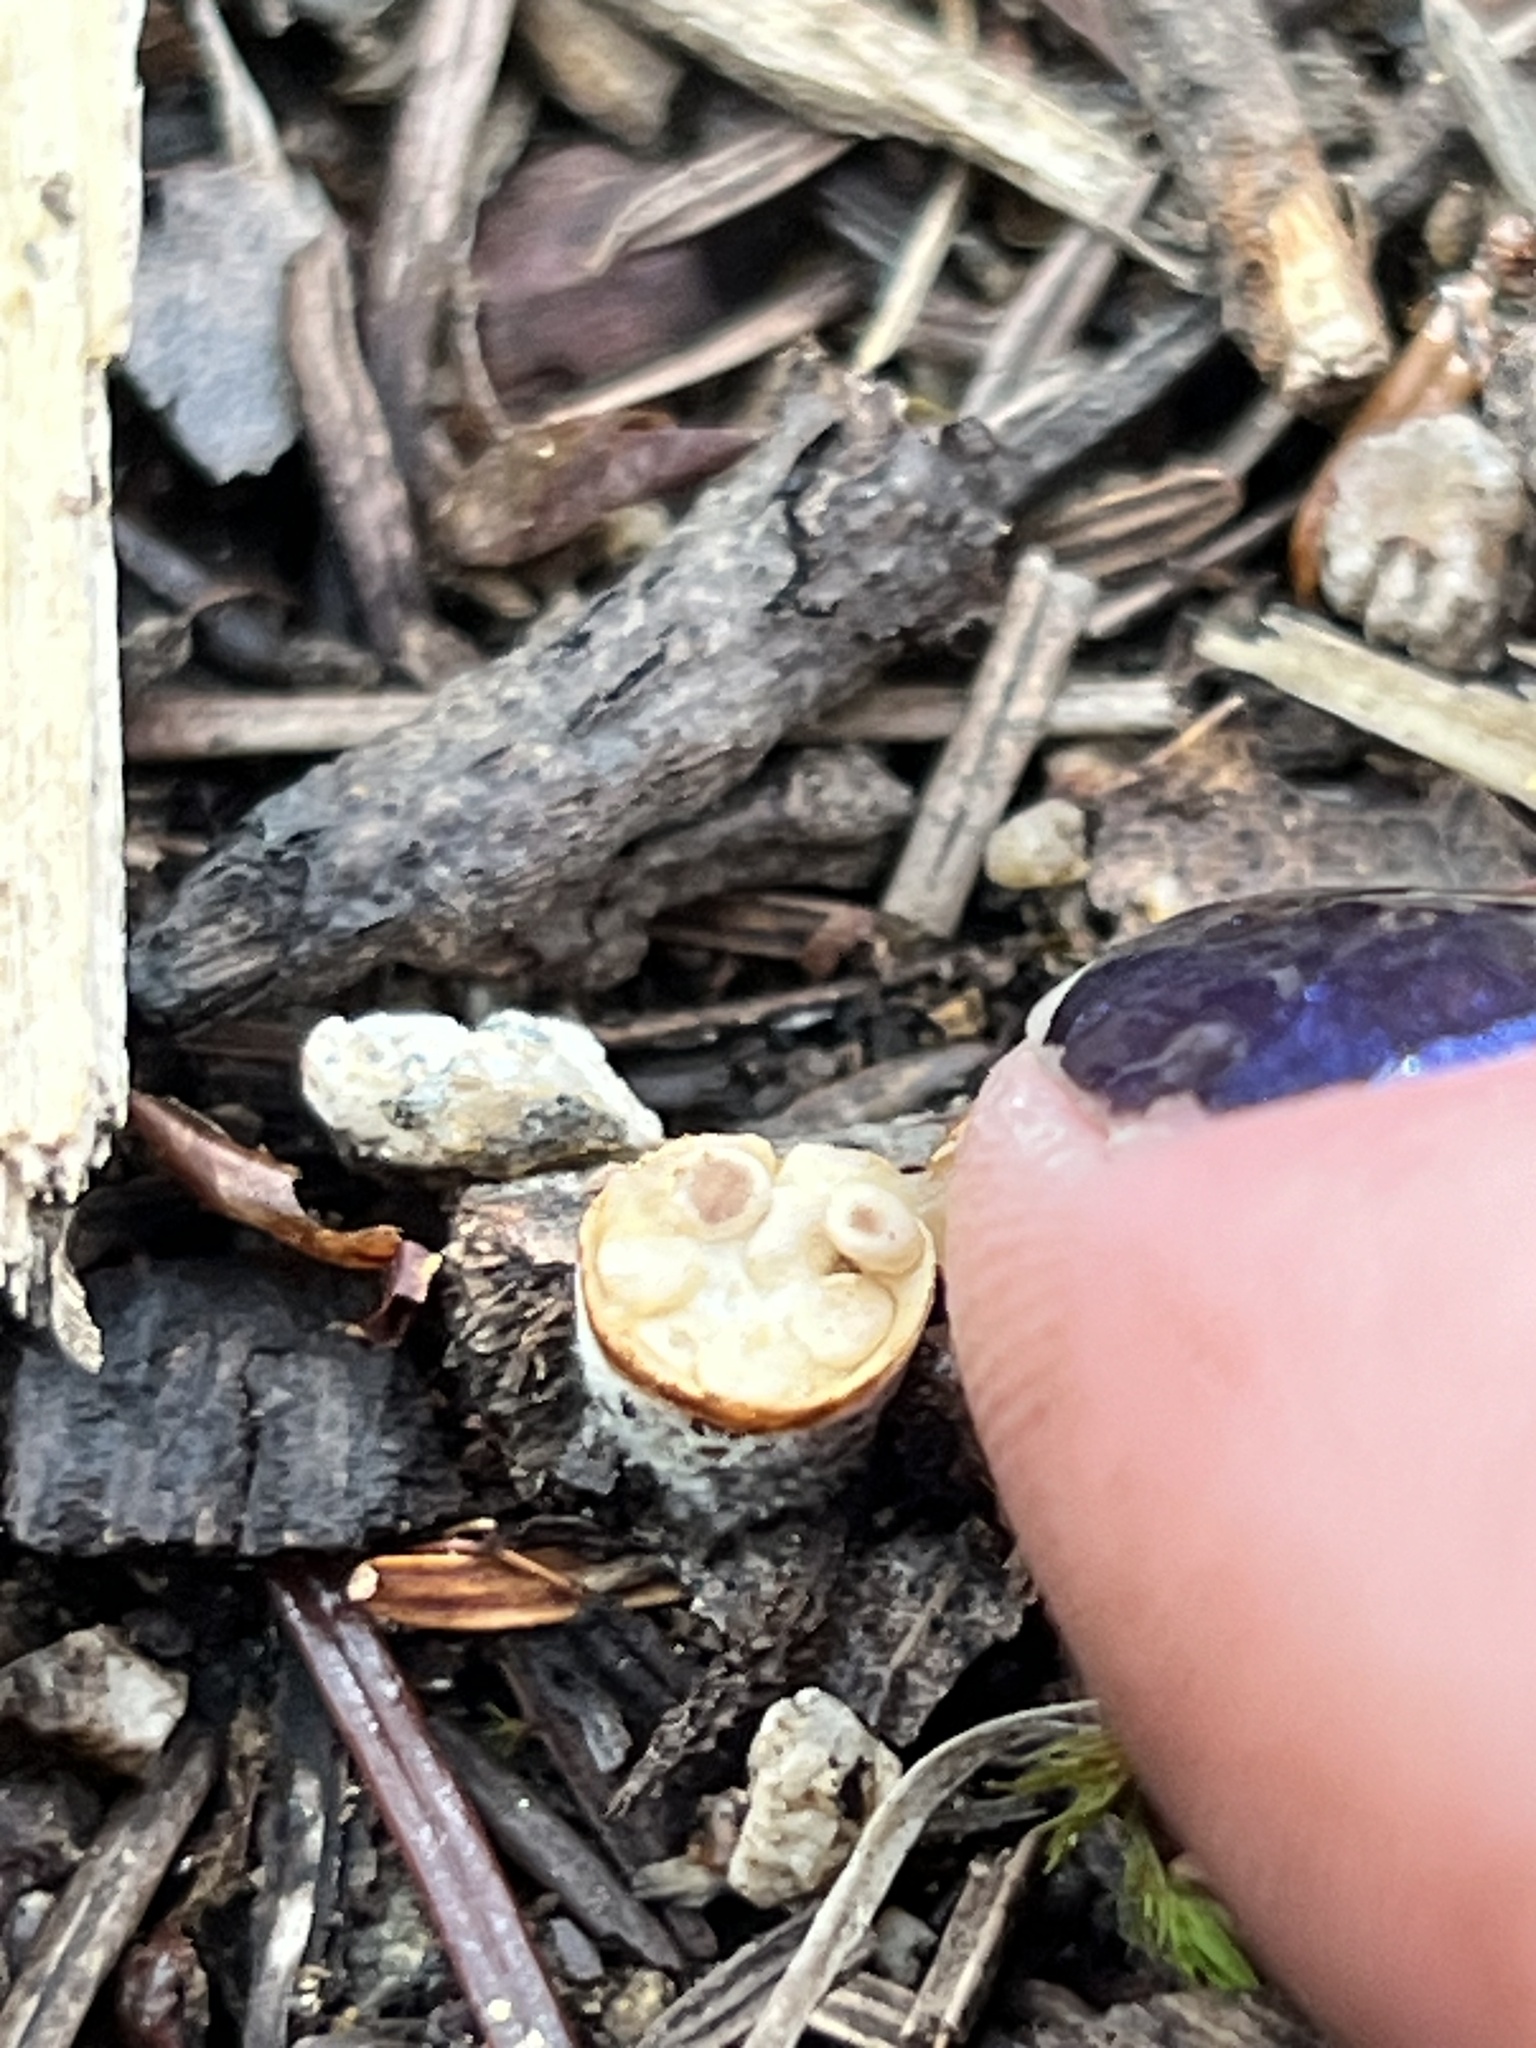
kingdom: Fungi
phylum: Basidiomycota
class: Agaricomycetes
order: Agaricales
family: Nidulariaceae
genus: Crucibulum
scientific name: Crucibulum laeve
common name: Common bird's nest
